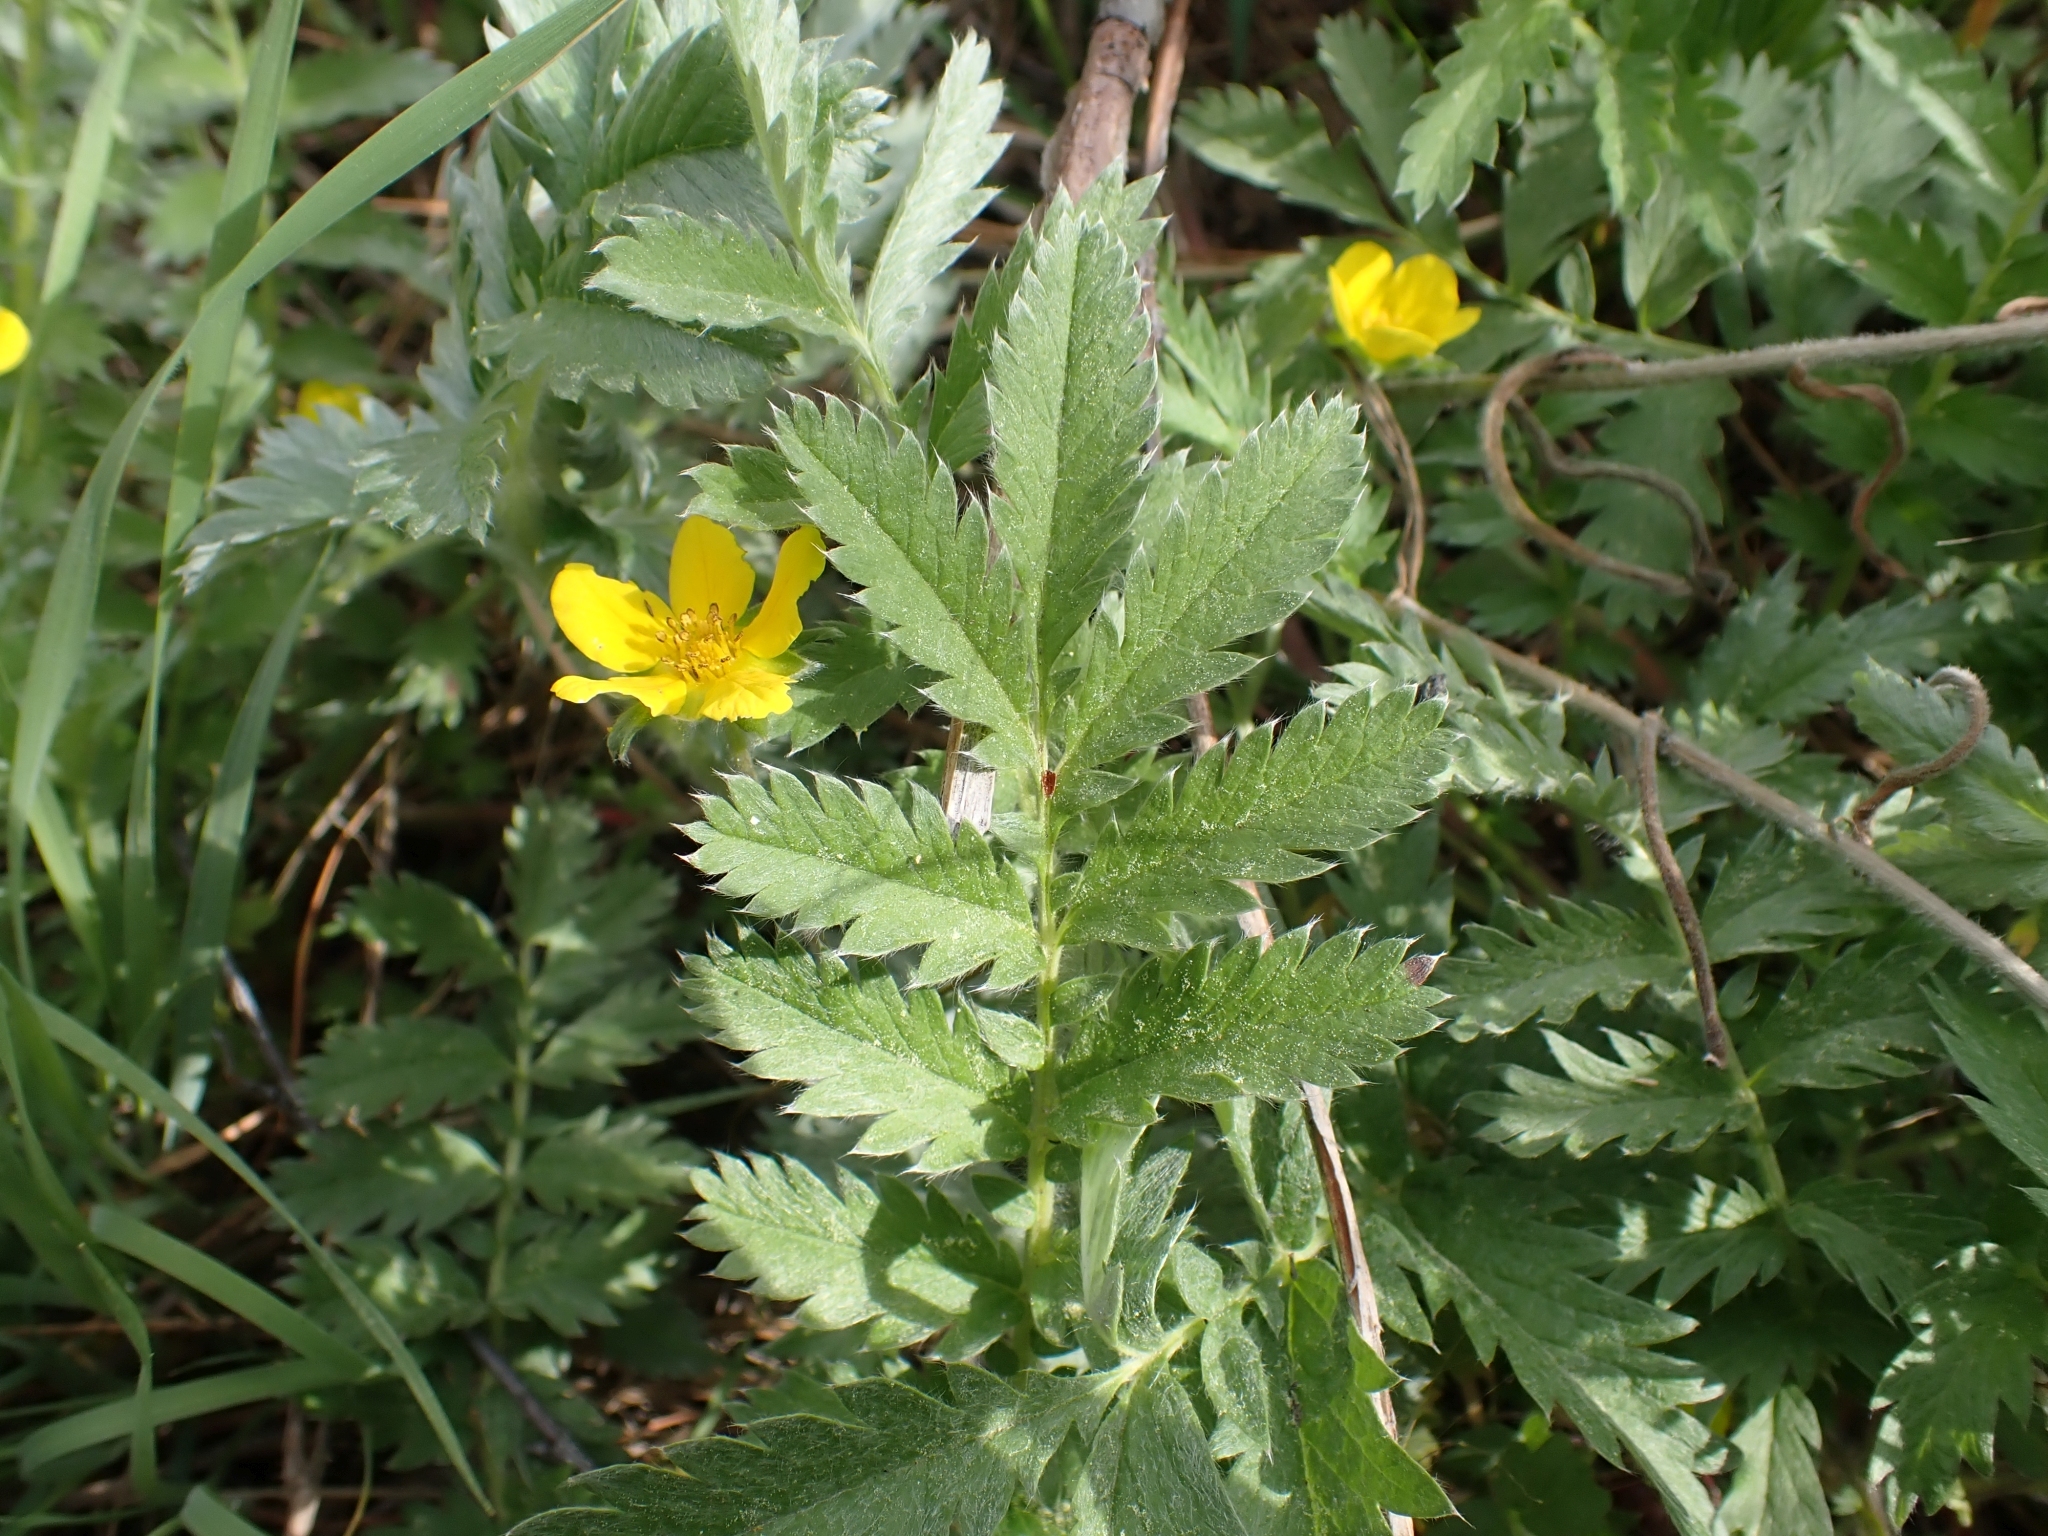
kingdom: Plantae
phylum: Tracheophyta
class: Magnoliopsida
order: Rosales
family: Rosaceae
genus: Argentina
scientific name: Argentina anserina
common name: Common silverweed
